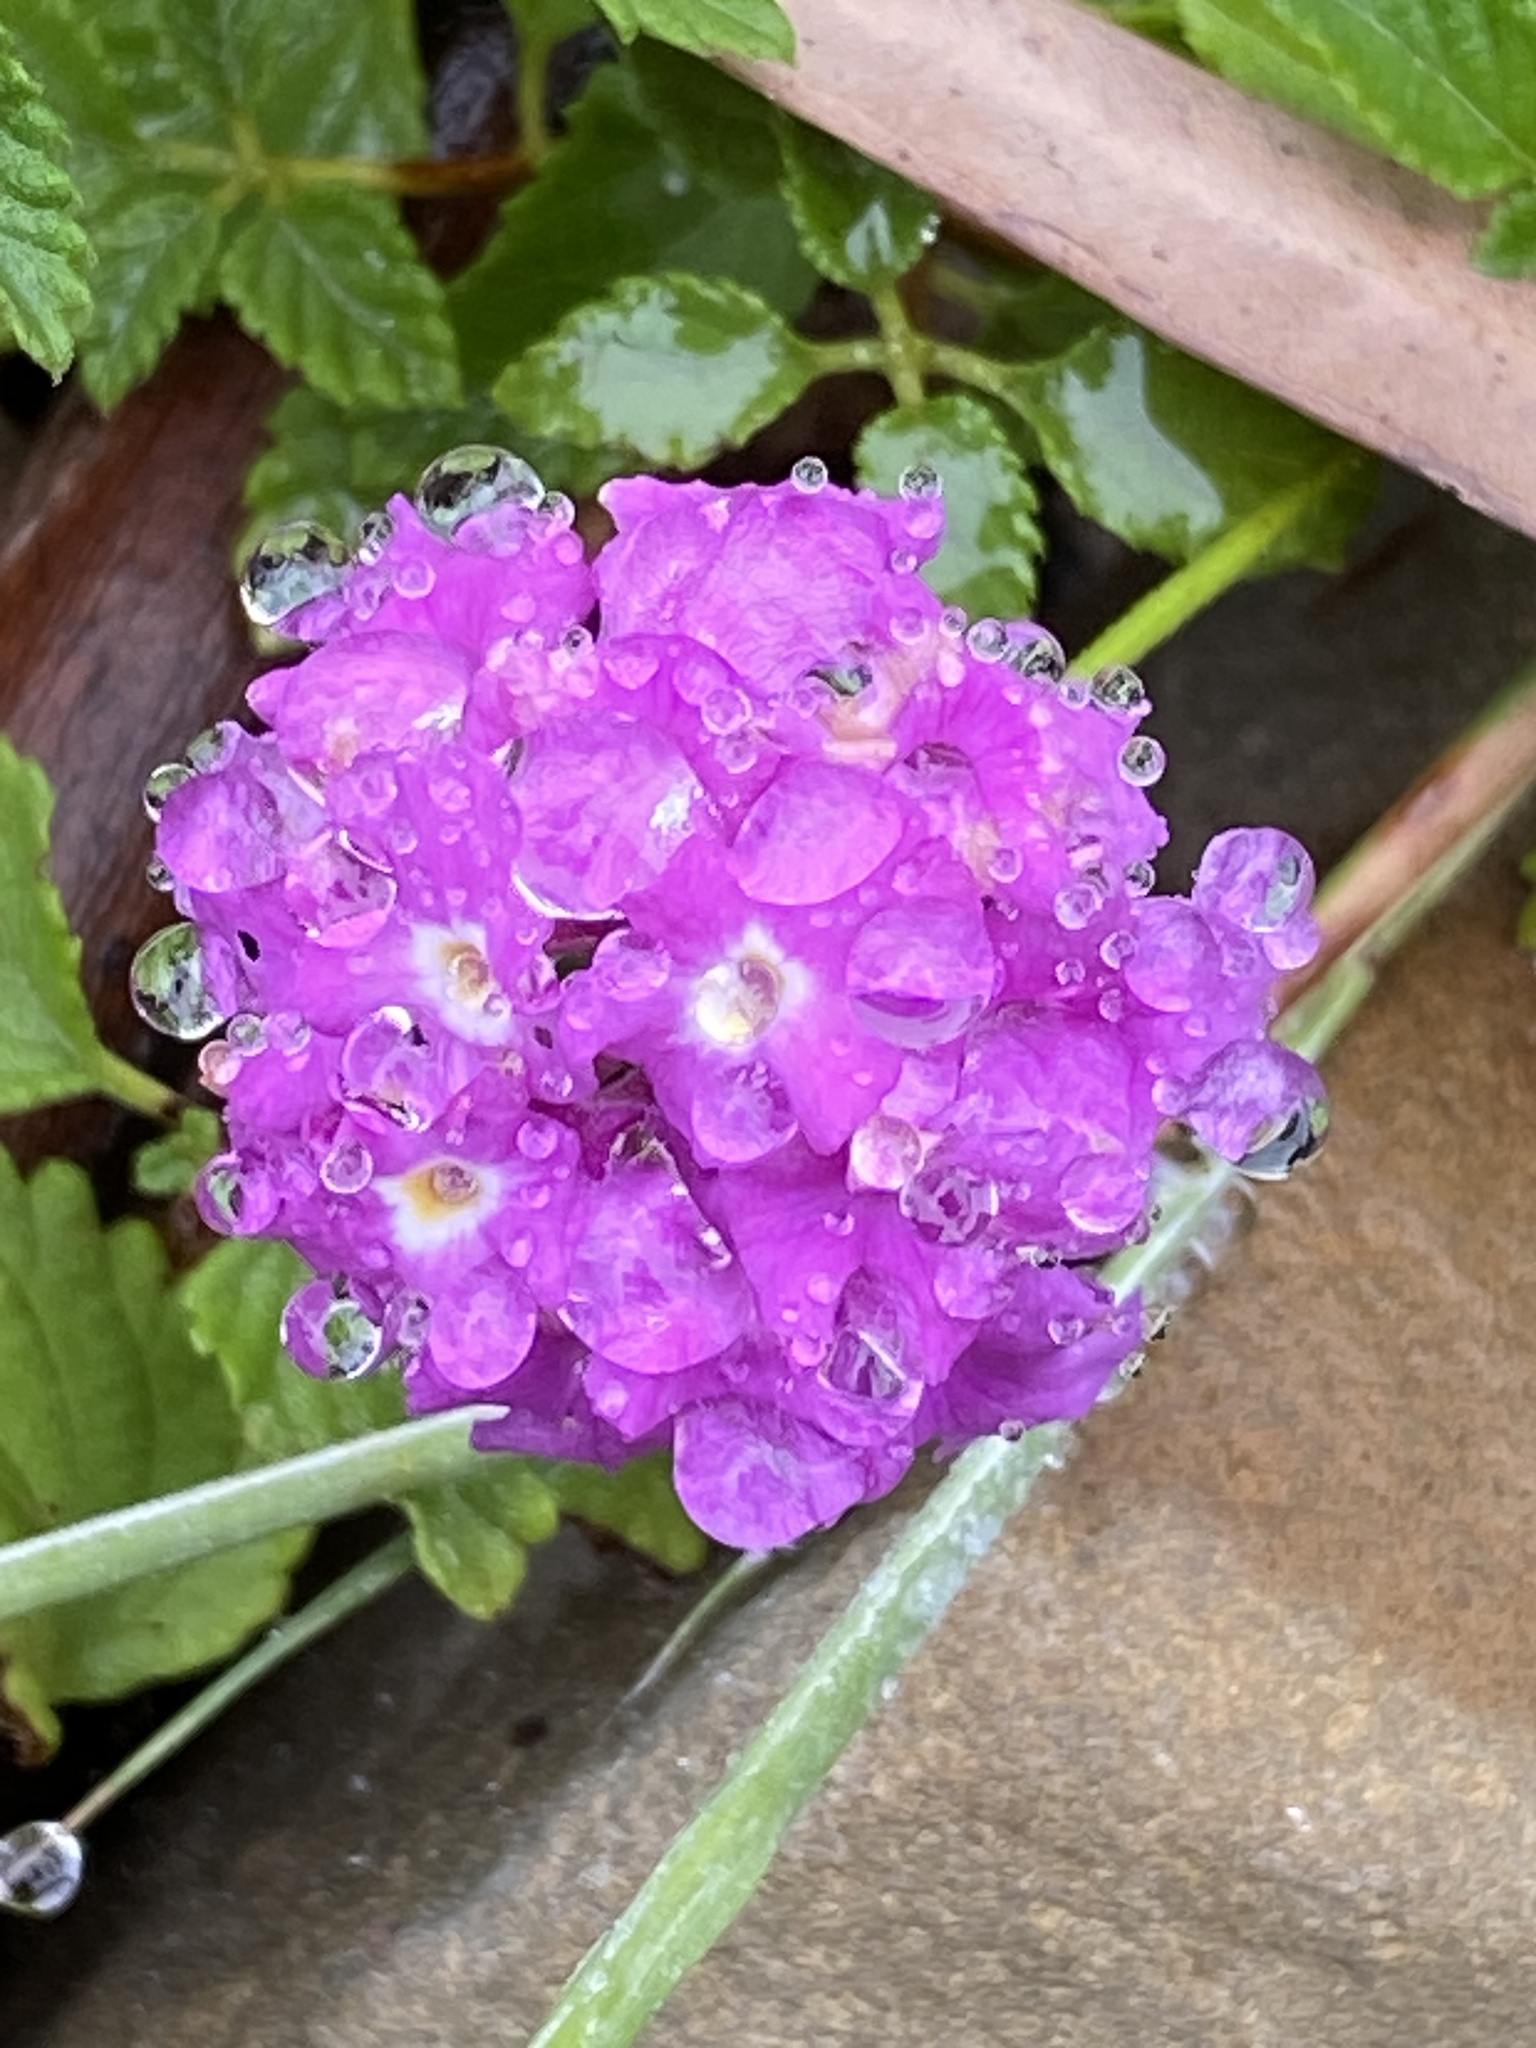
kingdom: Plantae
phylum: Tracheophyta
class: Magnoliopsida
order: Lamiales
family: Verbenaceae
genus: Lantana
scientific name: Lantana montevidensis
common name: Trailing shrubverbena
